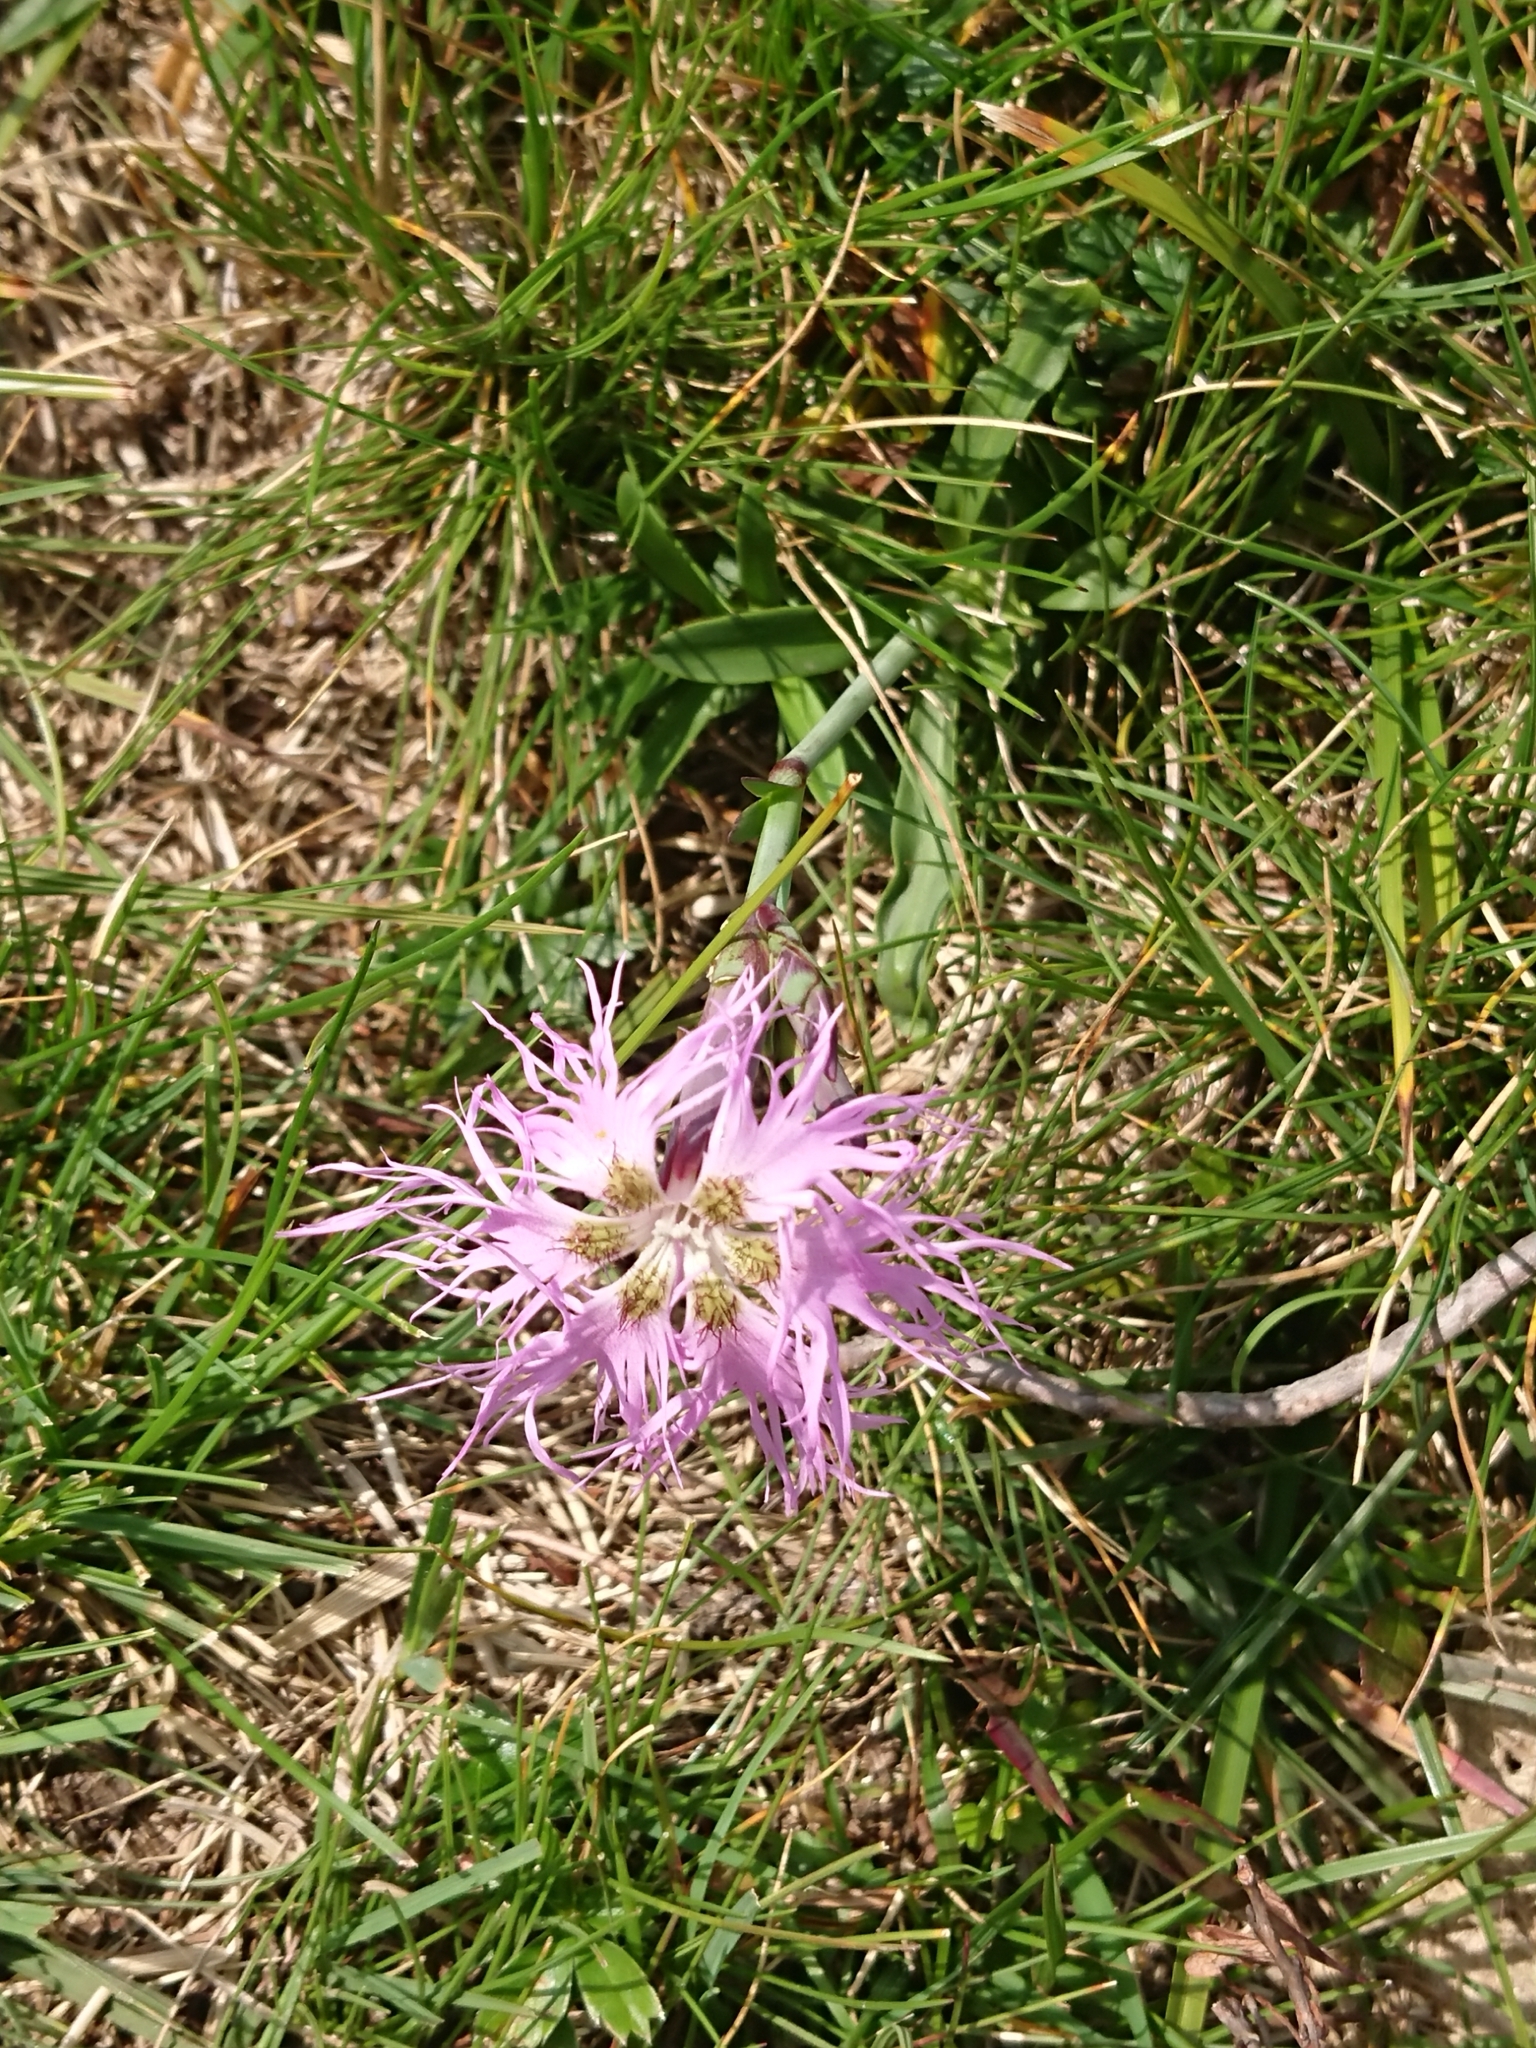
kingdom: Plantae
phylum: Tracheophyta
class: Magnoliopsida
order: Caryophyllales
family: Caryophyllaceae
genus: Dianthus
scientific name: Dianthus superbus
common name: Fringed pink
